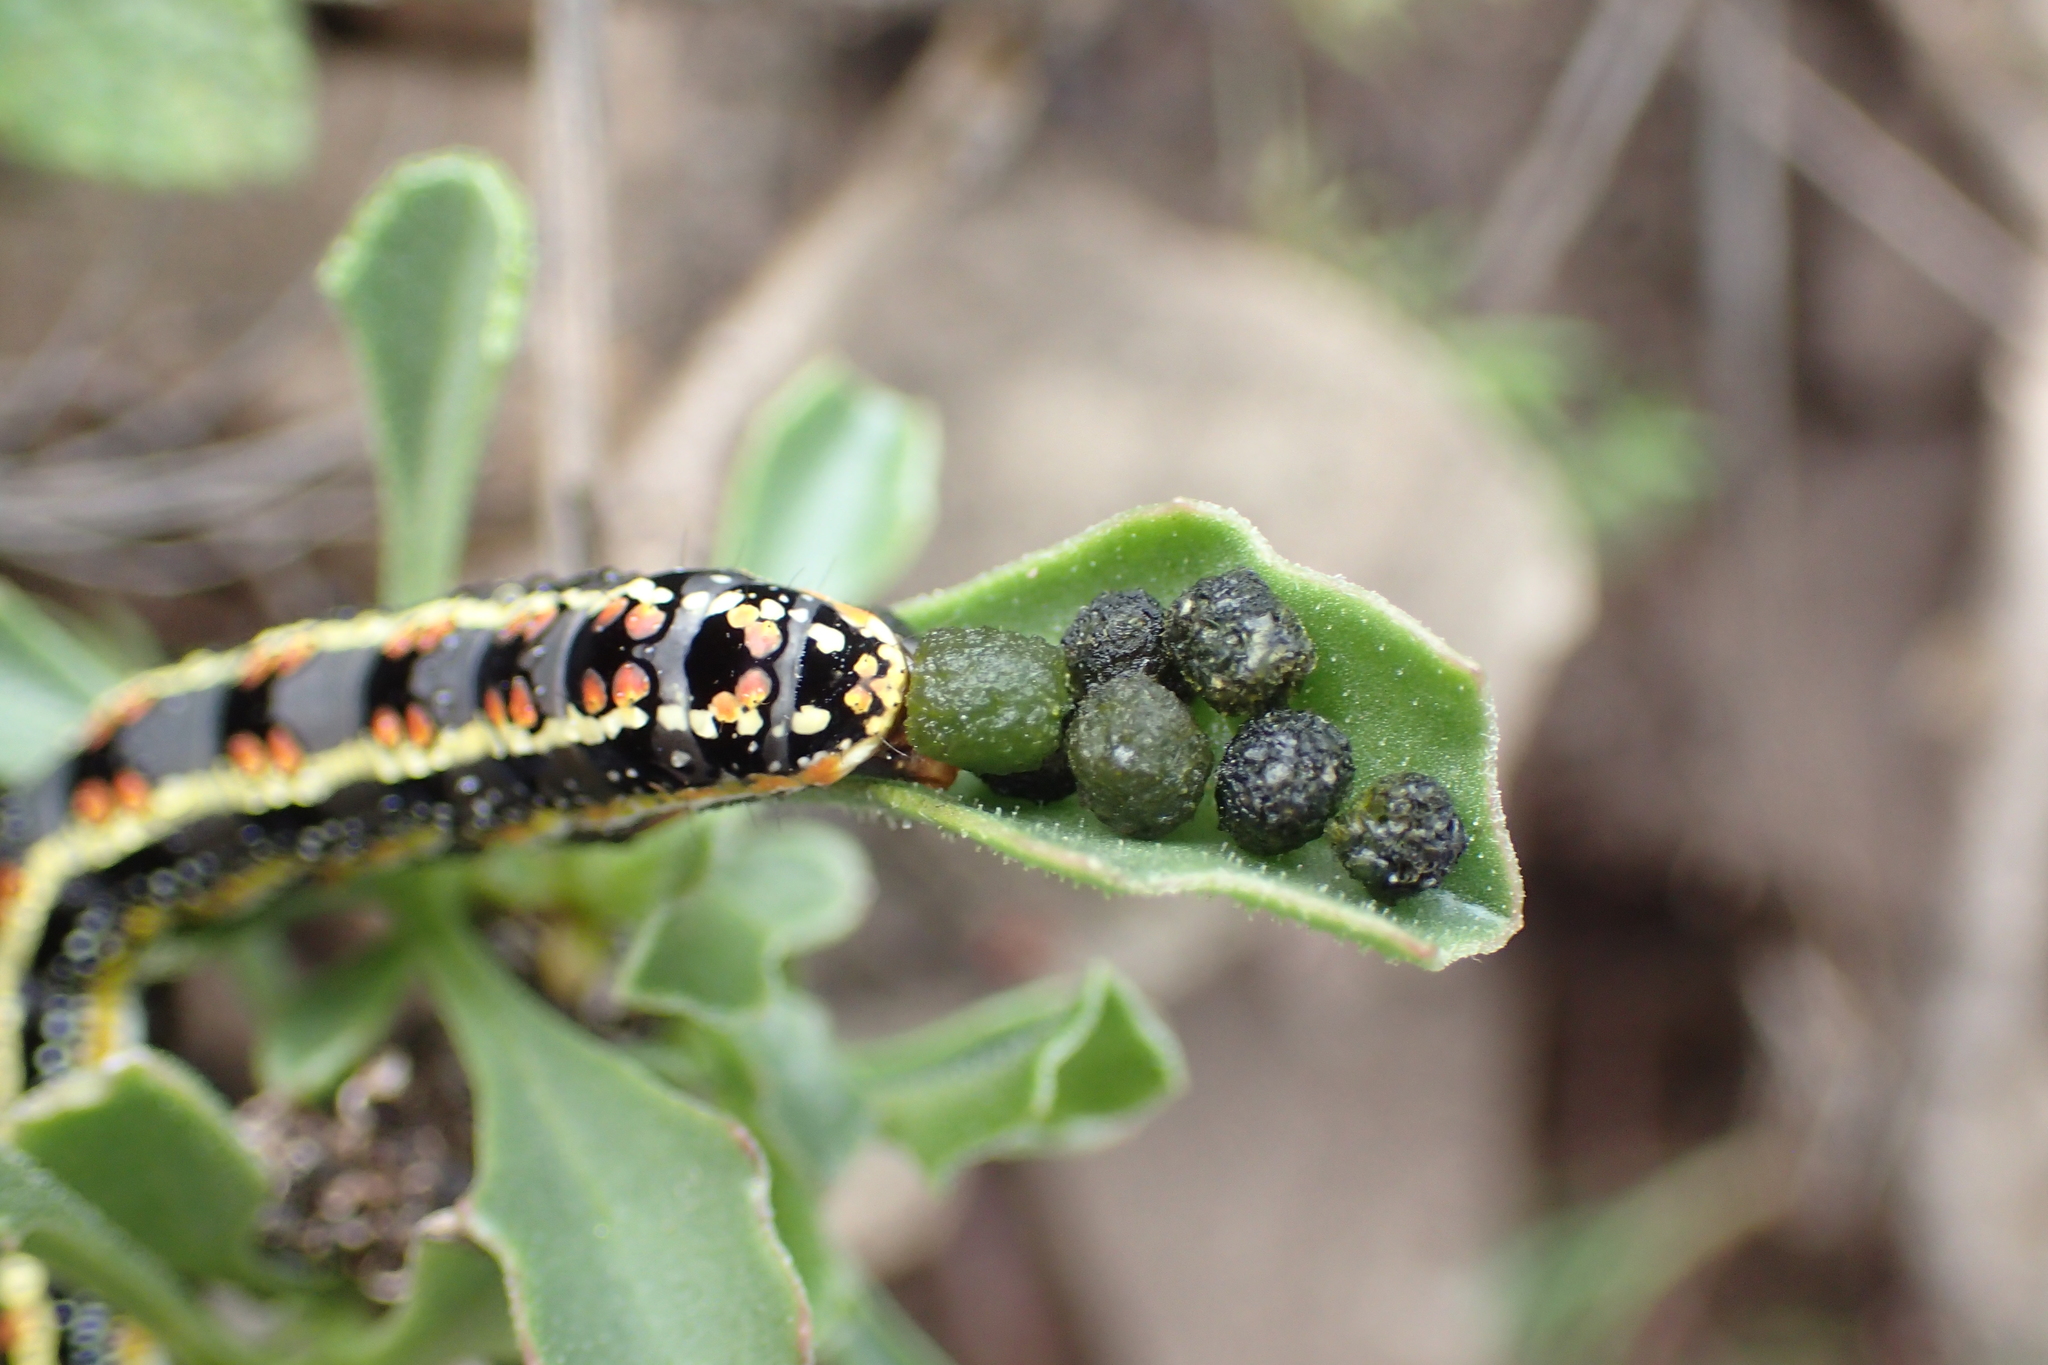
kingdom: Animalia
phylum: Arthropoda
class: Insecta
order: Lepidoptera
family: Noctuidae
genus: Cucullia
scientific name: Cucullia inaequalis
